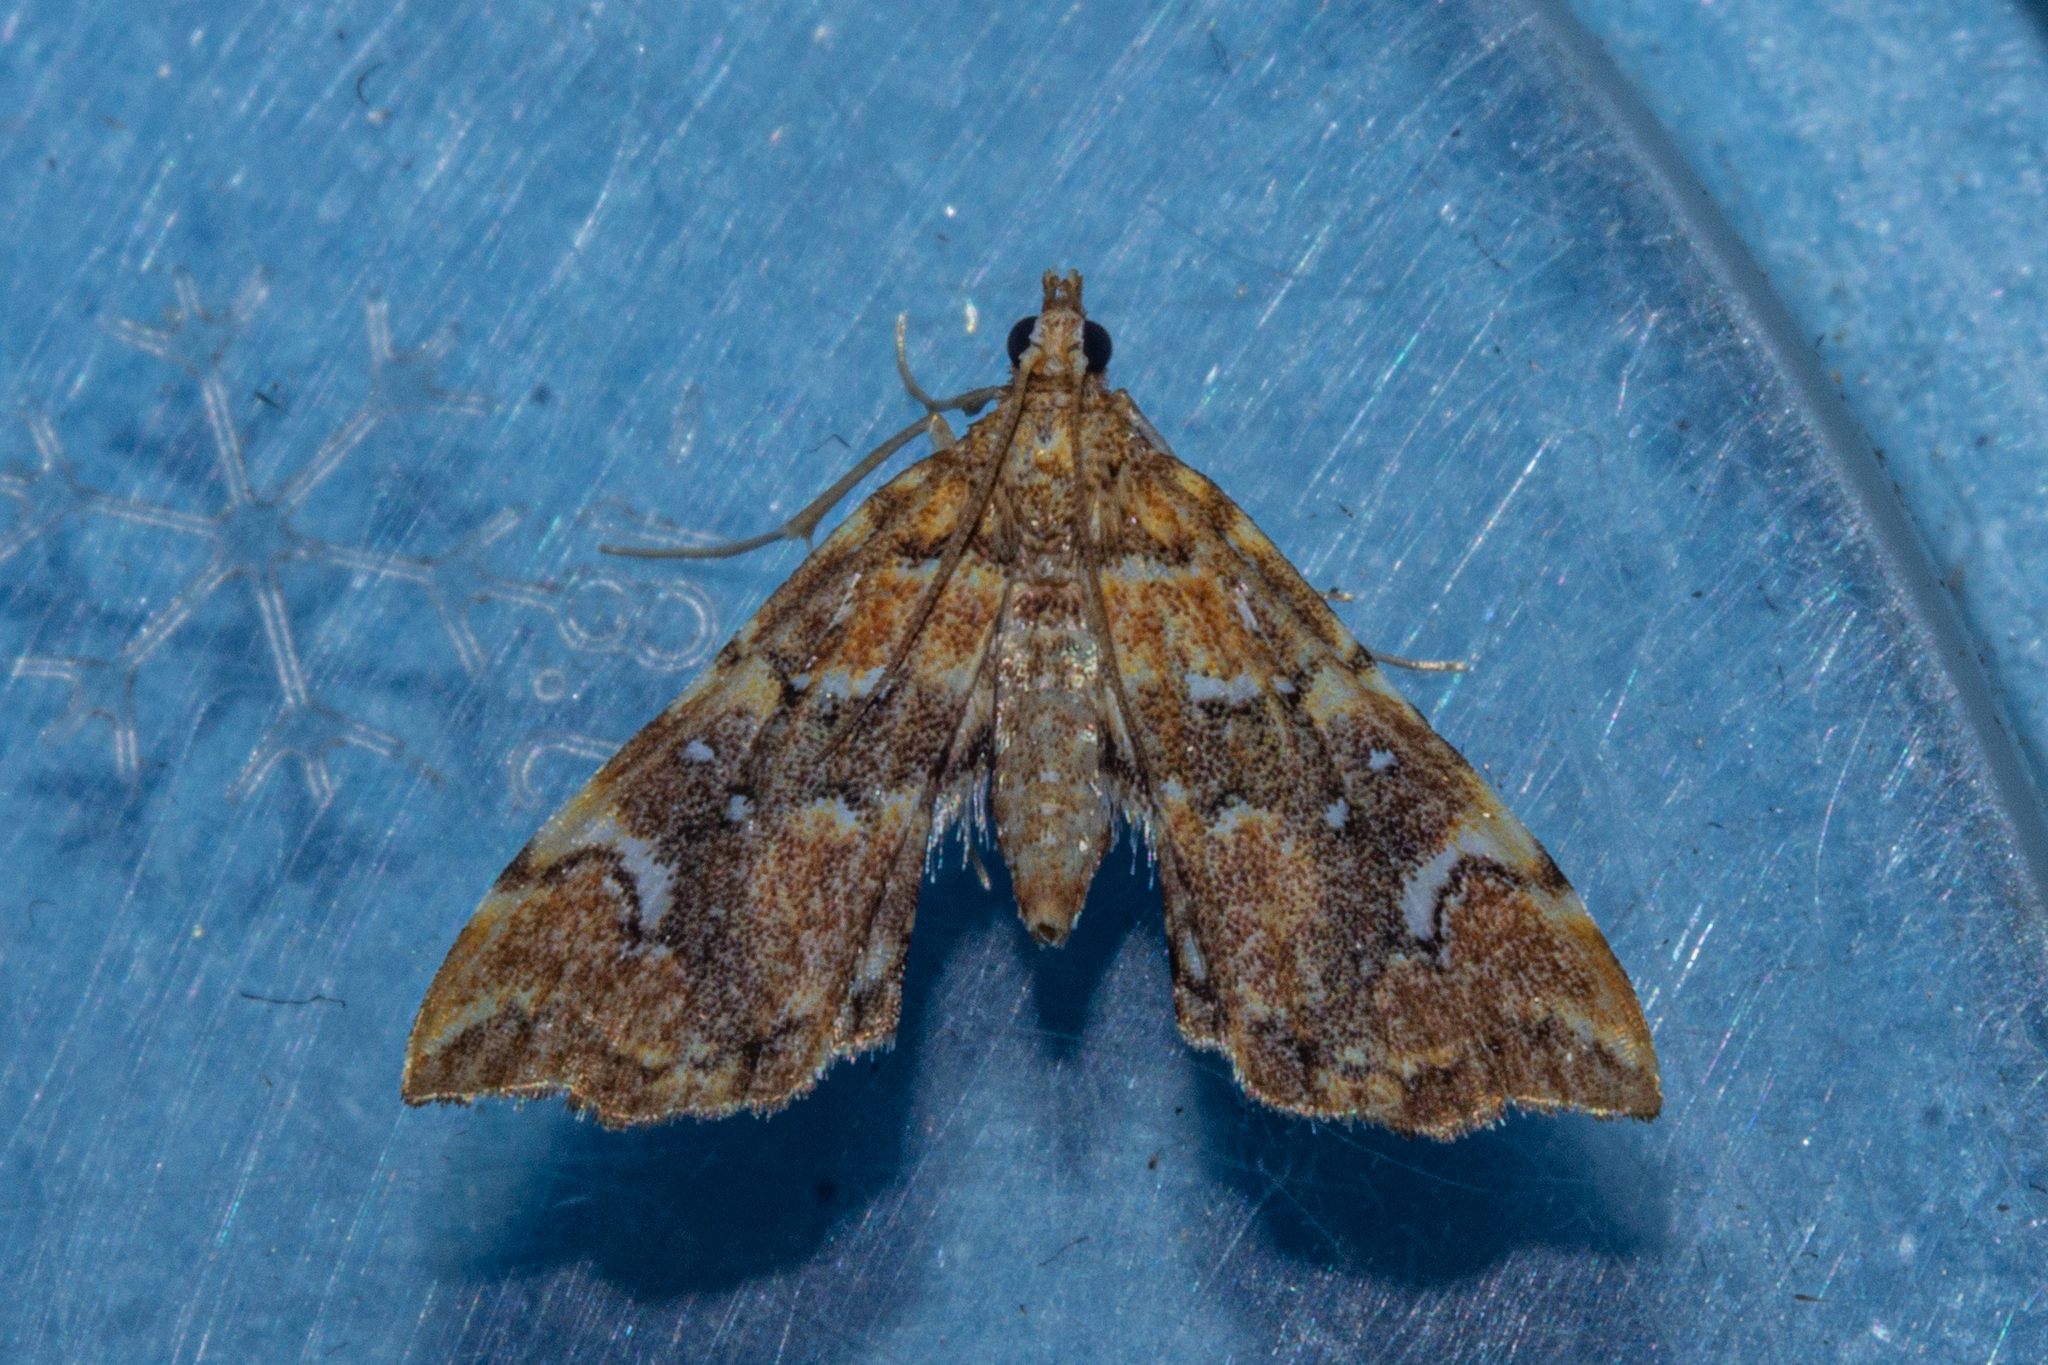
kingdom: Animalia
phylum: Arthropoda
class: Insecta
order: Lepidoptera
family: Pyralidae
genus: Musotima
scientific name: Musotima nitidalis
